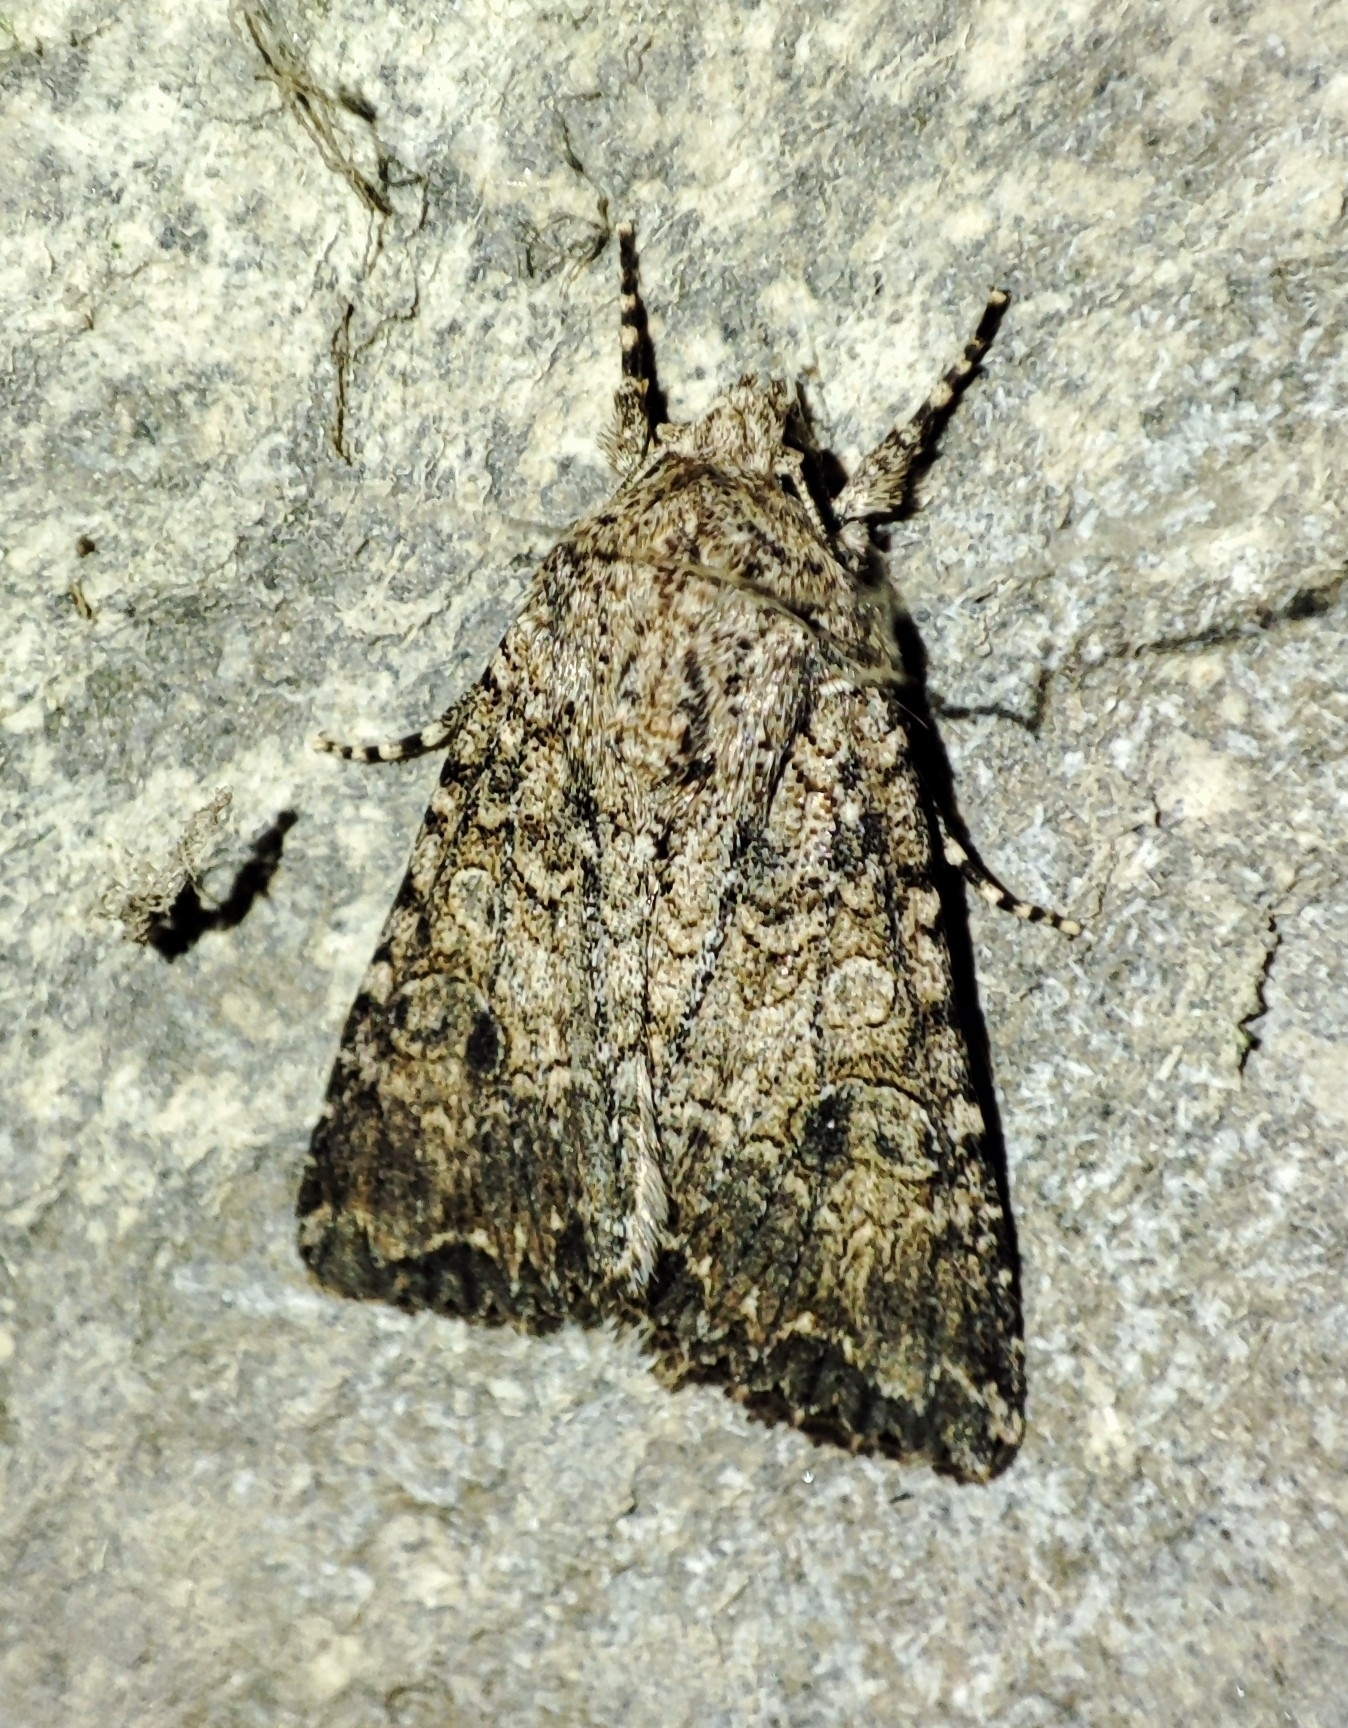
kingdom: Animalia
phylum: Arthropoda
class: Insecta
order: Lepidoptera
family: Noctuidae
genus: Anarta
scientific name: Anarta trifolii
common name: Clover cutworm moth
